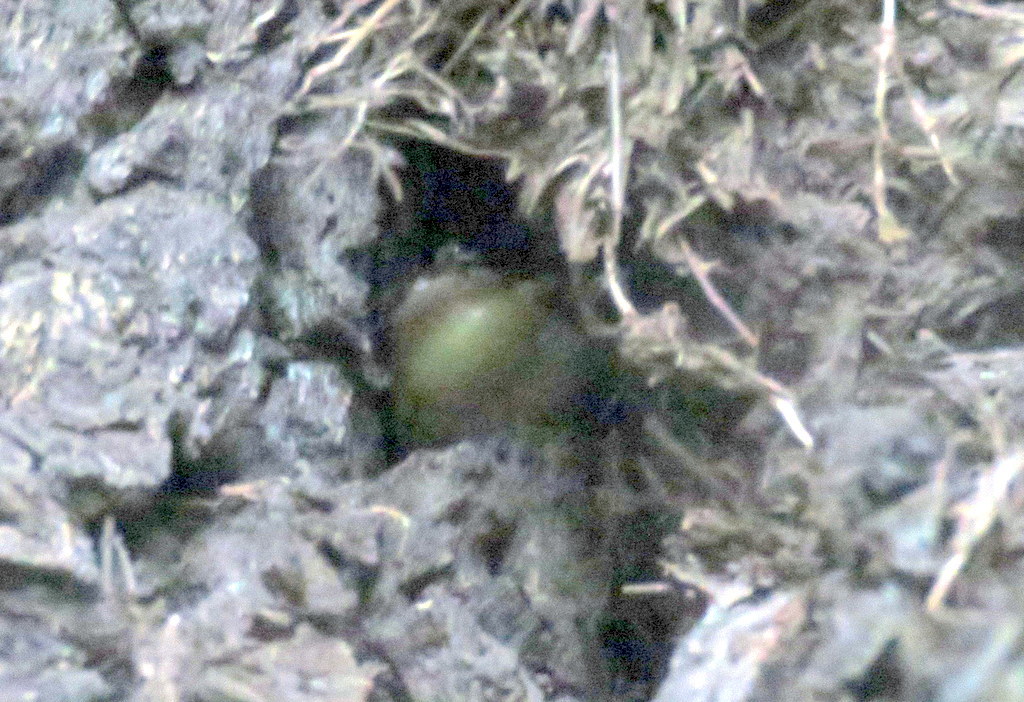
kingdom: Animalia
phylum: Chordata
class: Amphibia
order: Anura
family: Hylidae
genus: Scinax
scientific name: Scinax nasicus
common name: Lesser snouted treefrog
